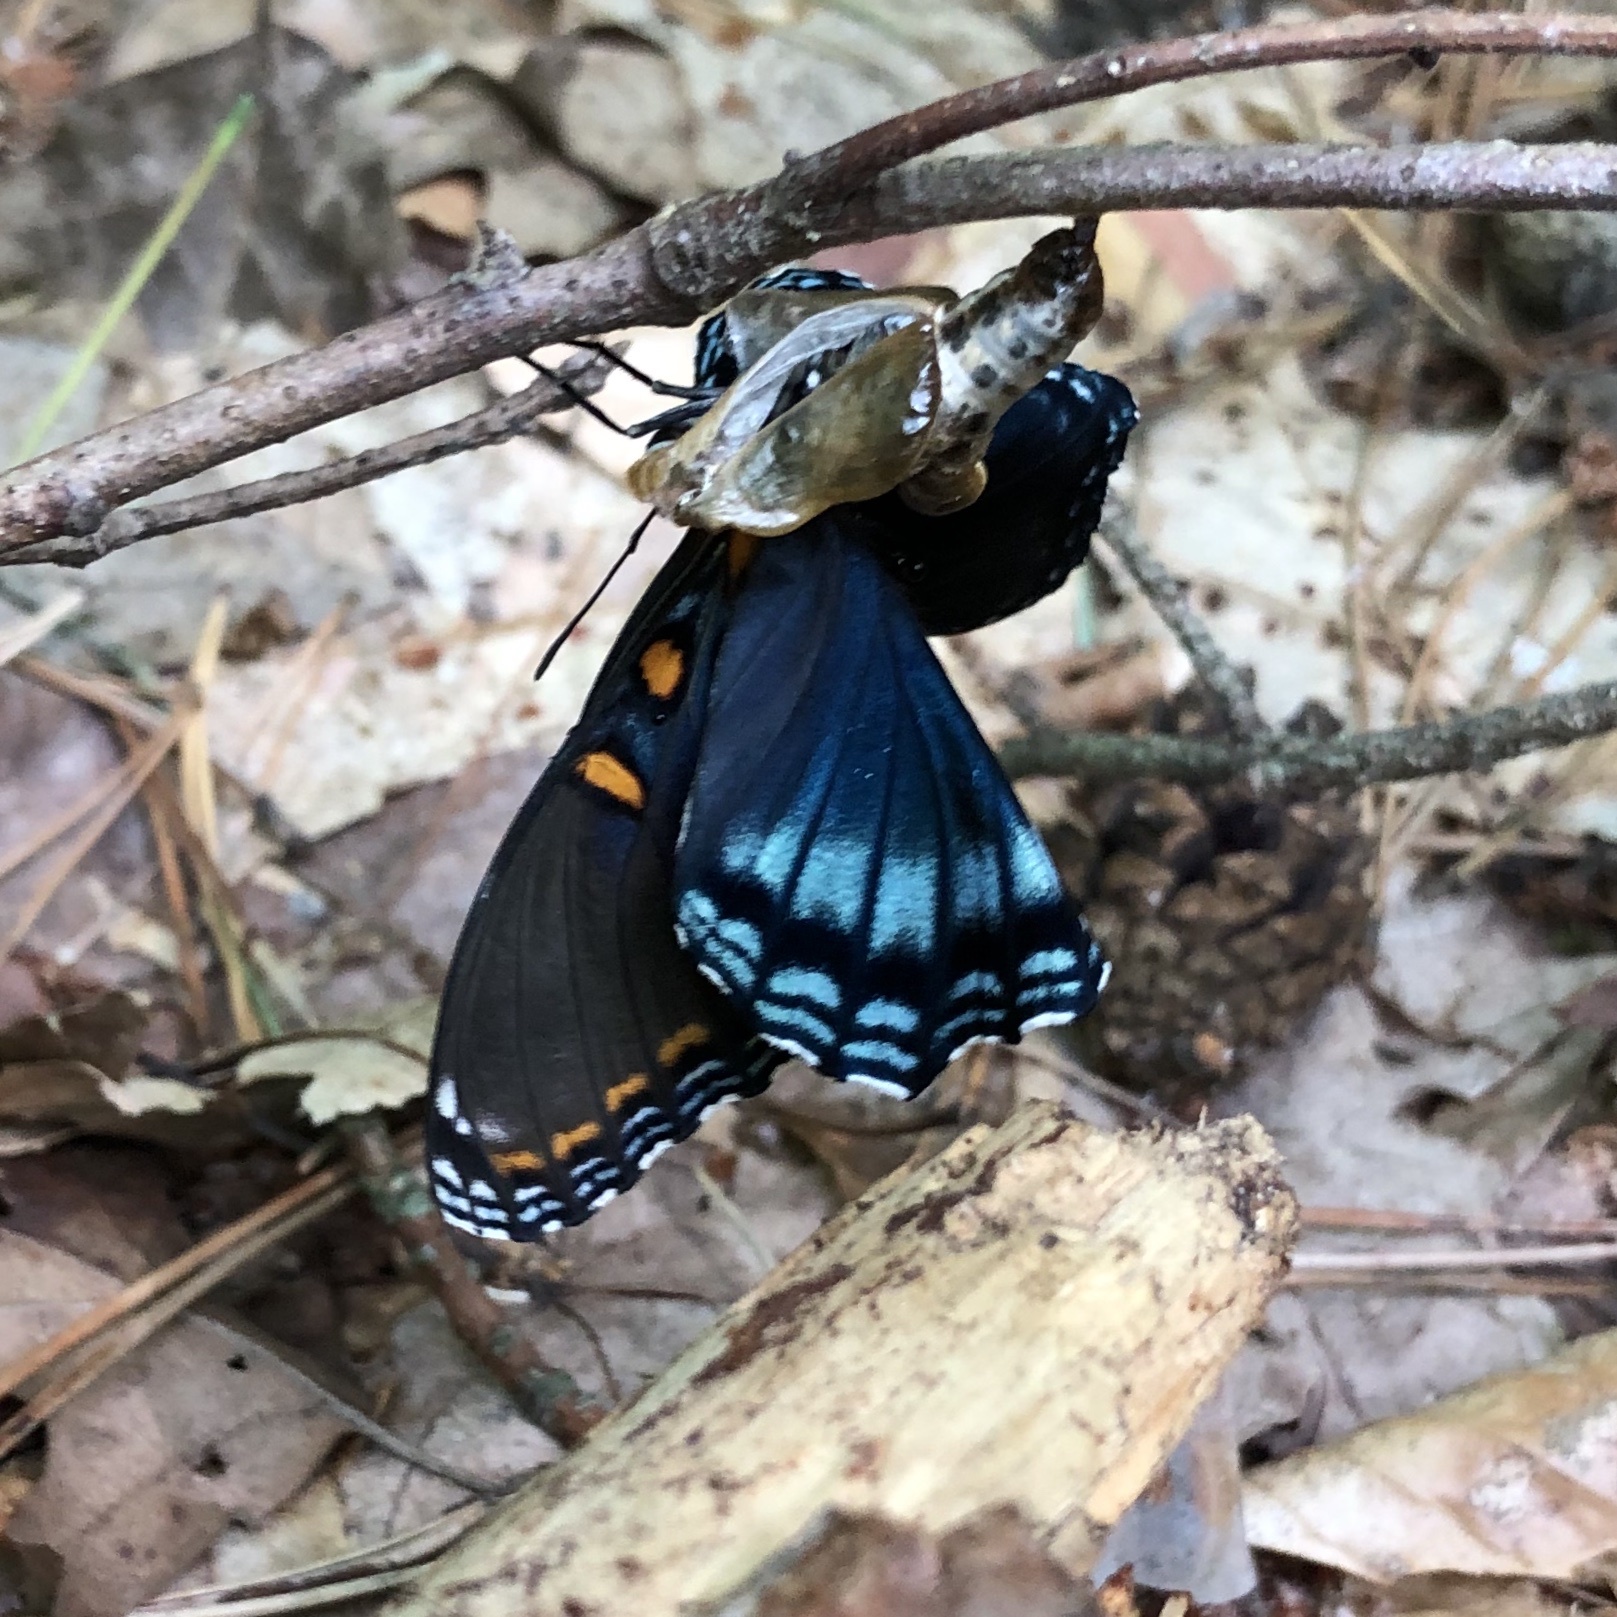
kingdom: Animalia
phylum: Arthropoda
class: Insecta
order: Lepidoptera
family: Nymphalidae
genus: Limenitis
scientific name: Limenitis astyanax
